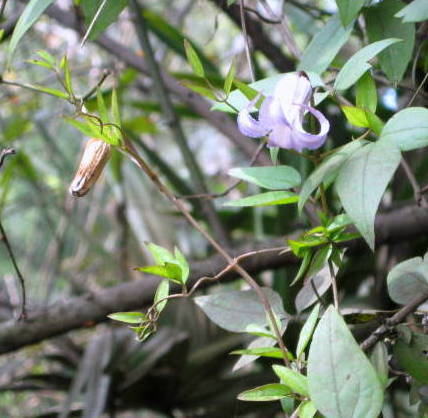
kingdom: Plantae
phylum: Tracheophyta
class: Magnoliopsida
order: Ranunculales
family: Ranunculaceae
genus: Clematis
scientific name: Clematis crispa
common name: Curly clematis
